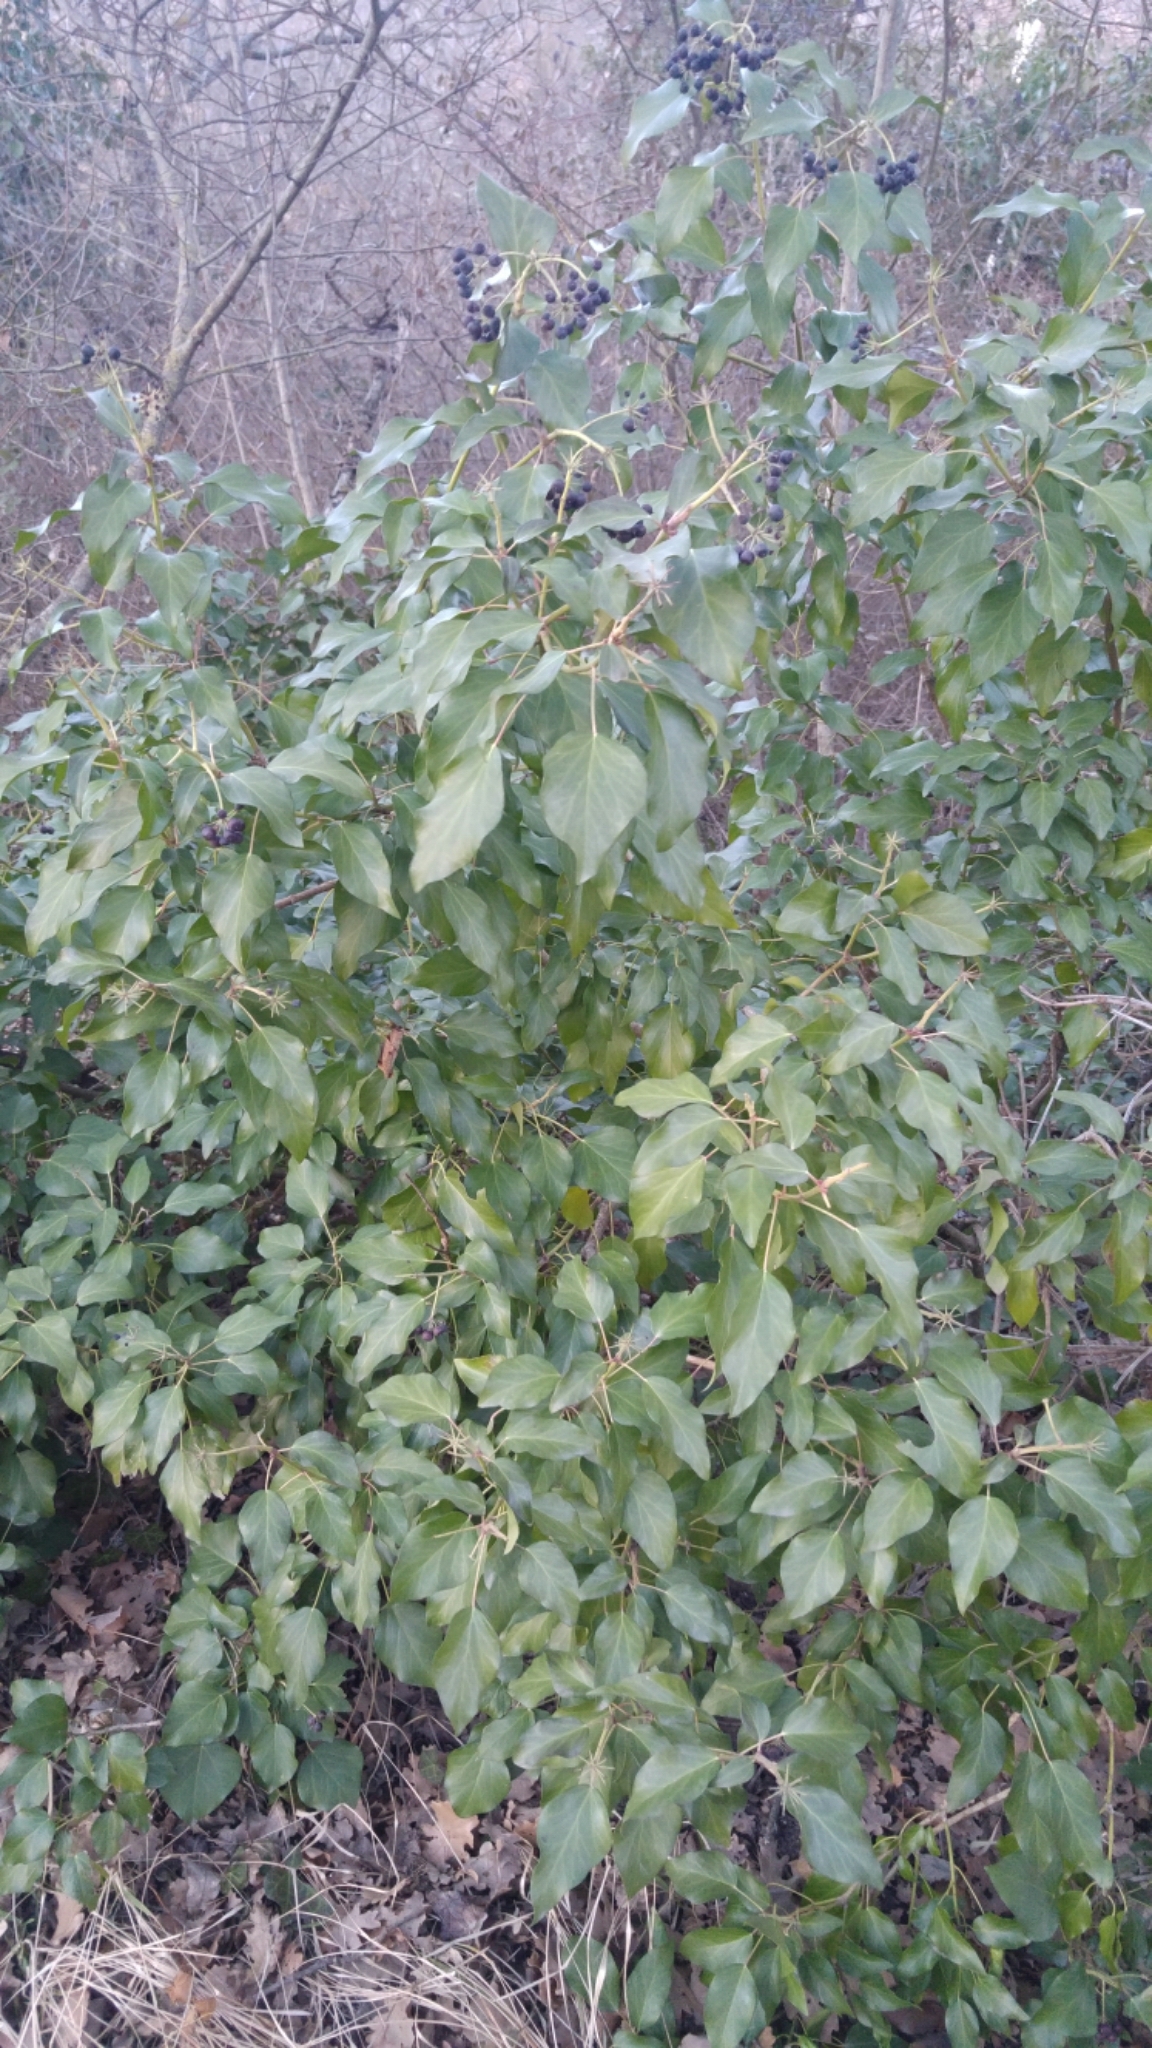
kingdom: Plantae
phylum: Tracheophyta
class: Magnoliopsida
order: Apiales
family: Araliaceae
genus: Hedera
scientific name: Hedera helix
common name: Ivy
